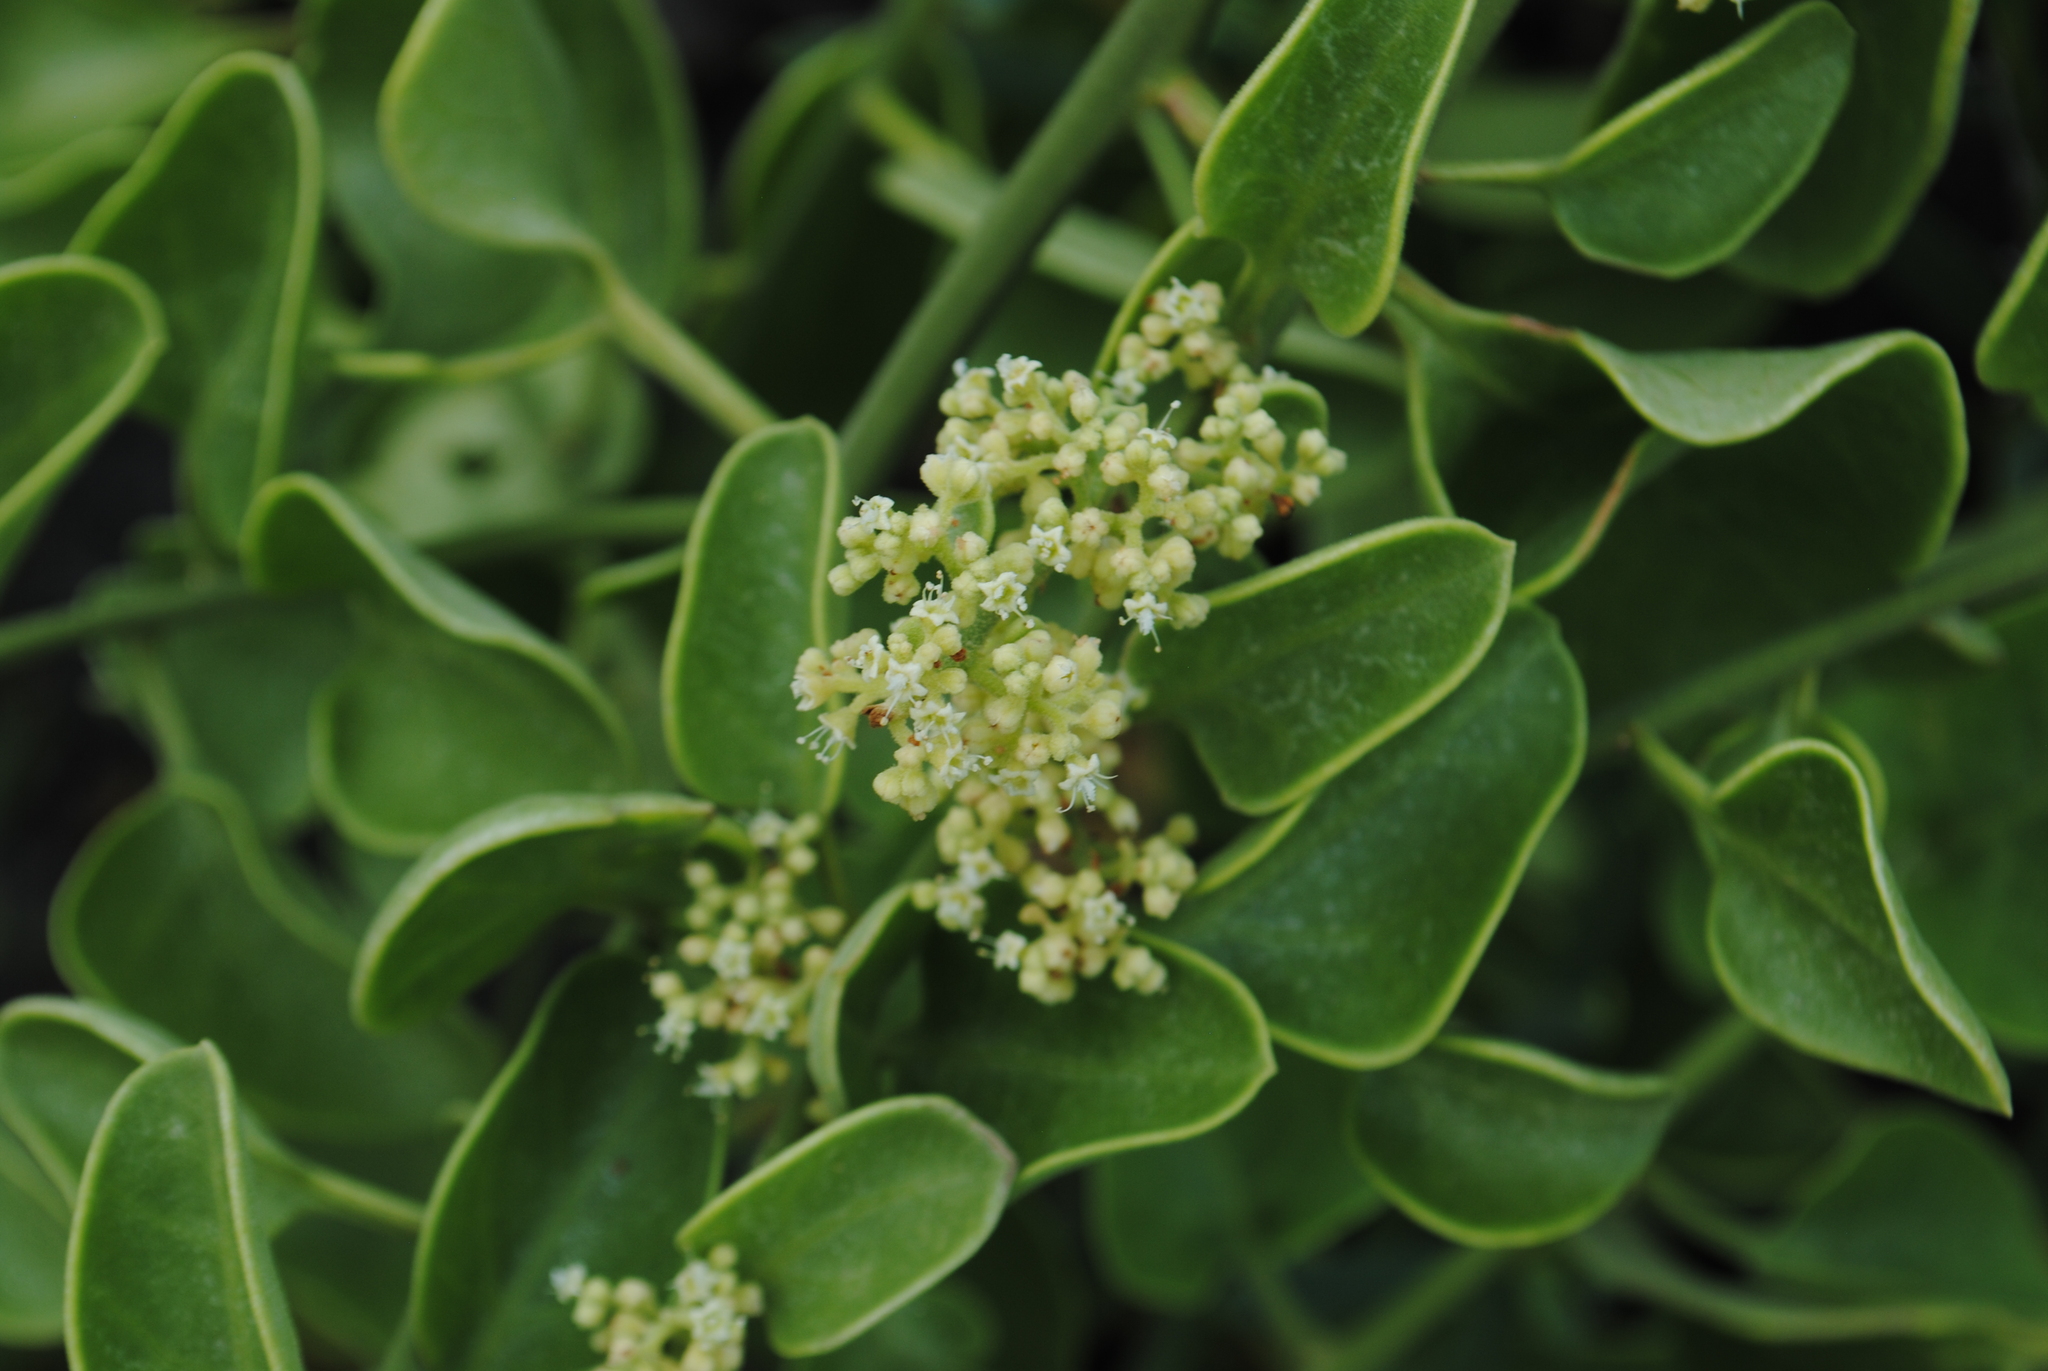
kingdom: Plantae
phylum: Tracheophyta
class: Magnoliopsida
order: Caryophyllales
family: Nyctaginaceae
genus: Cryptocarpus
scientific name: Cryptocarpus pyriformis
